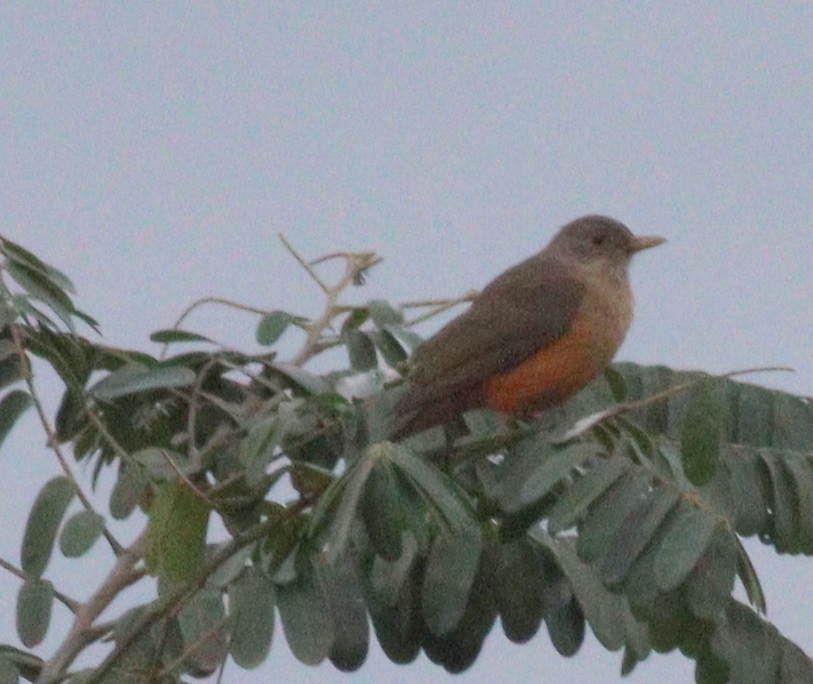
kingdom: Animalia
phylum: Chordata
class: Aves
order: Passeriformes
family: Turdidae
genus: Turdus
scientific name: Turdus rufiventris
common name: Rufous-bellied thrush
